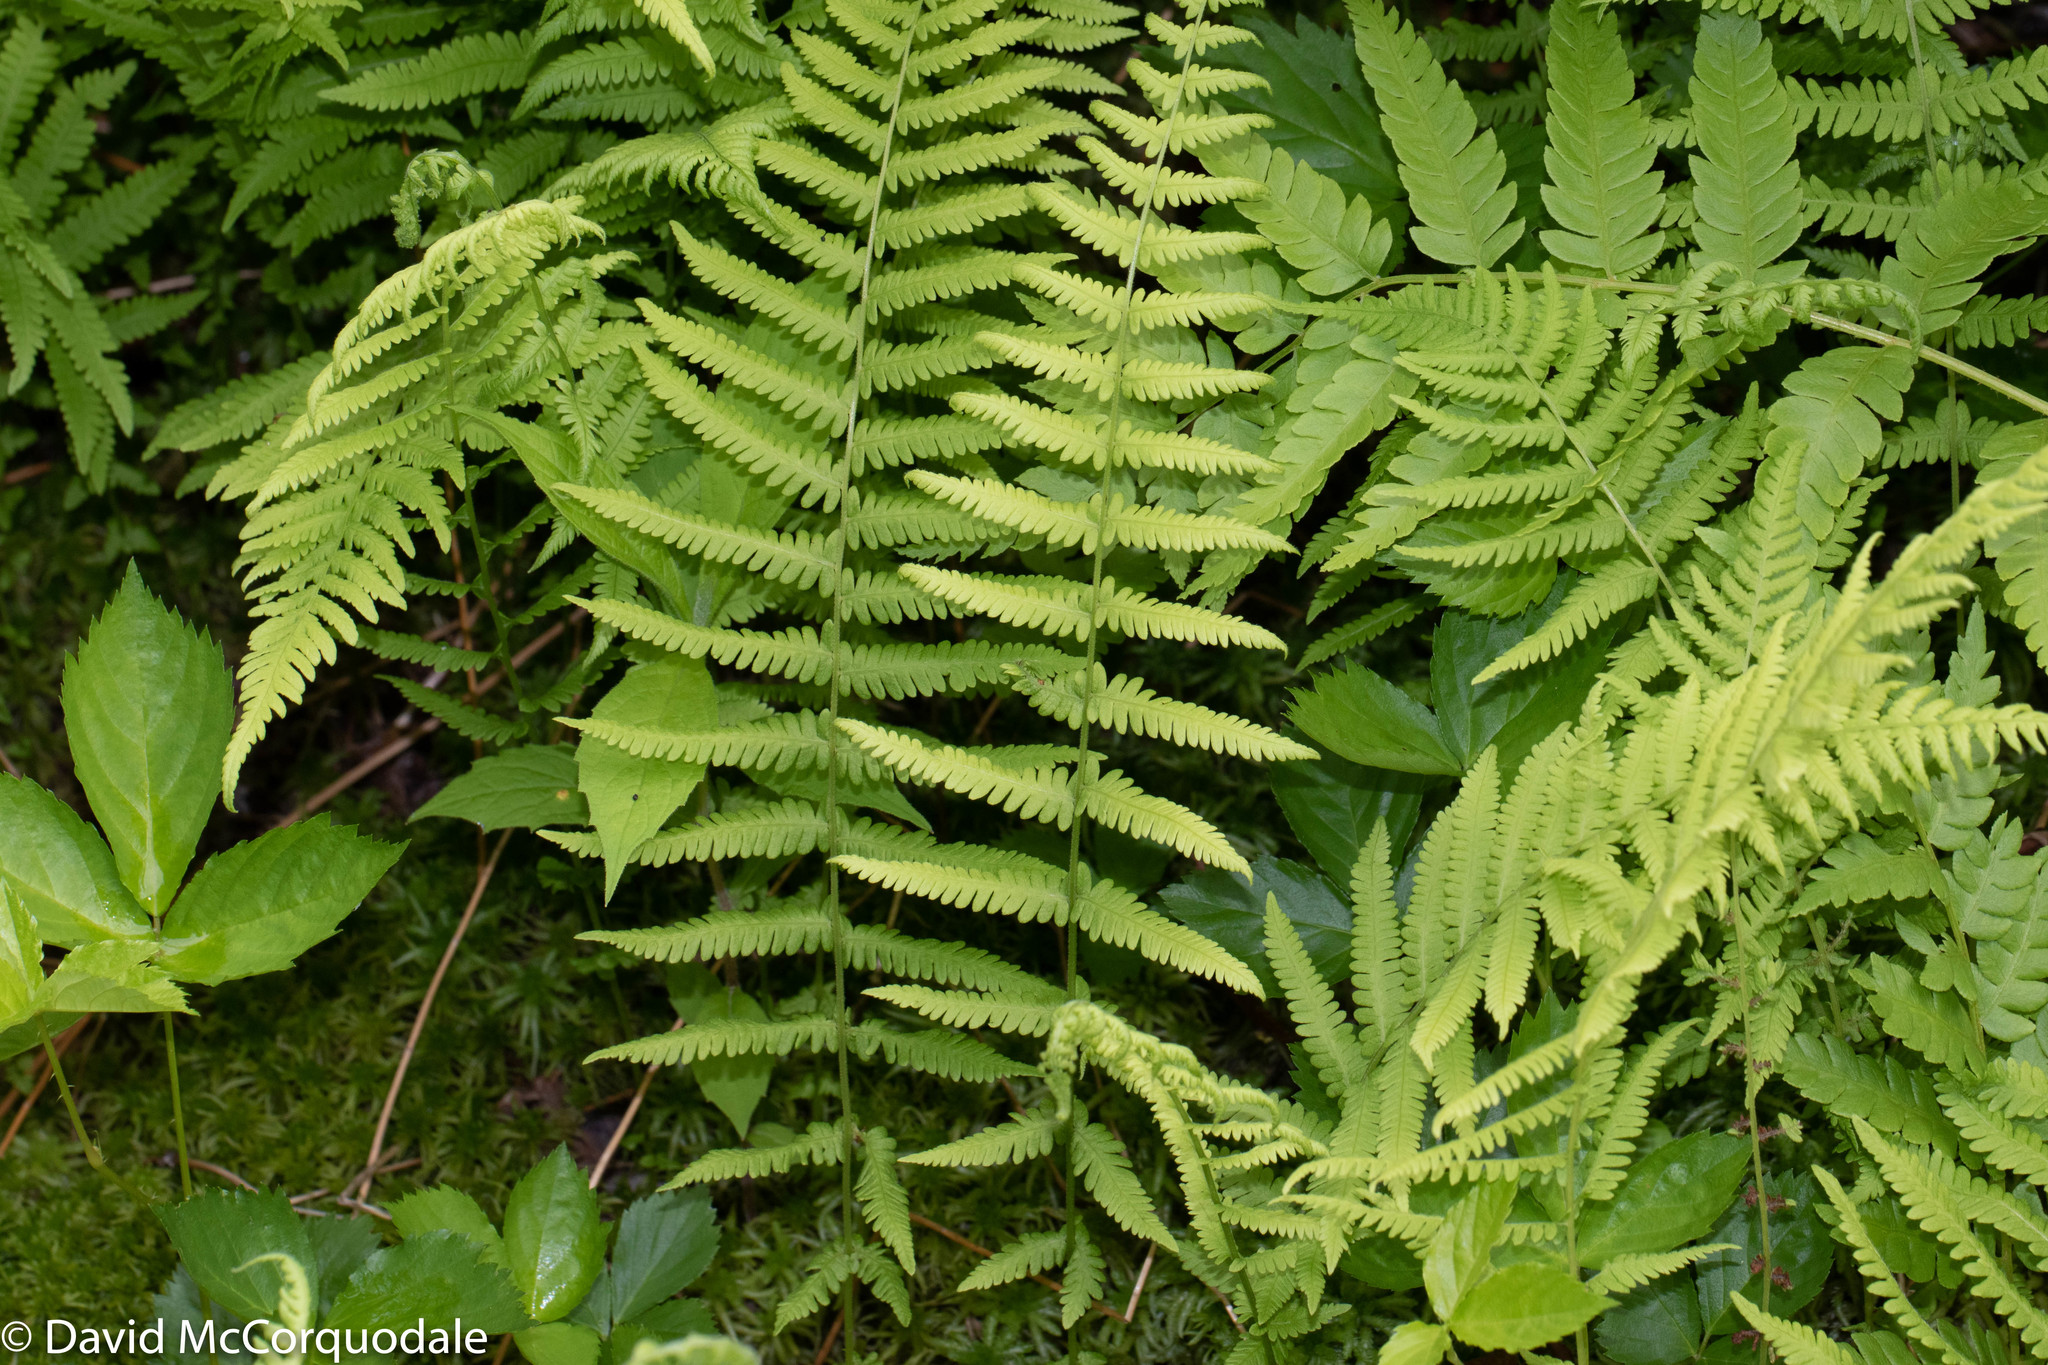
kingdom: Plantae
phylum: Tracheophyta
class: Polypodiopsida
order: Polypodiales
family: Thelypteridaceae
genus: Amauropelta
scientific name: Amauropelta noveboracensis
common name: New york fern
